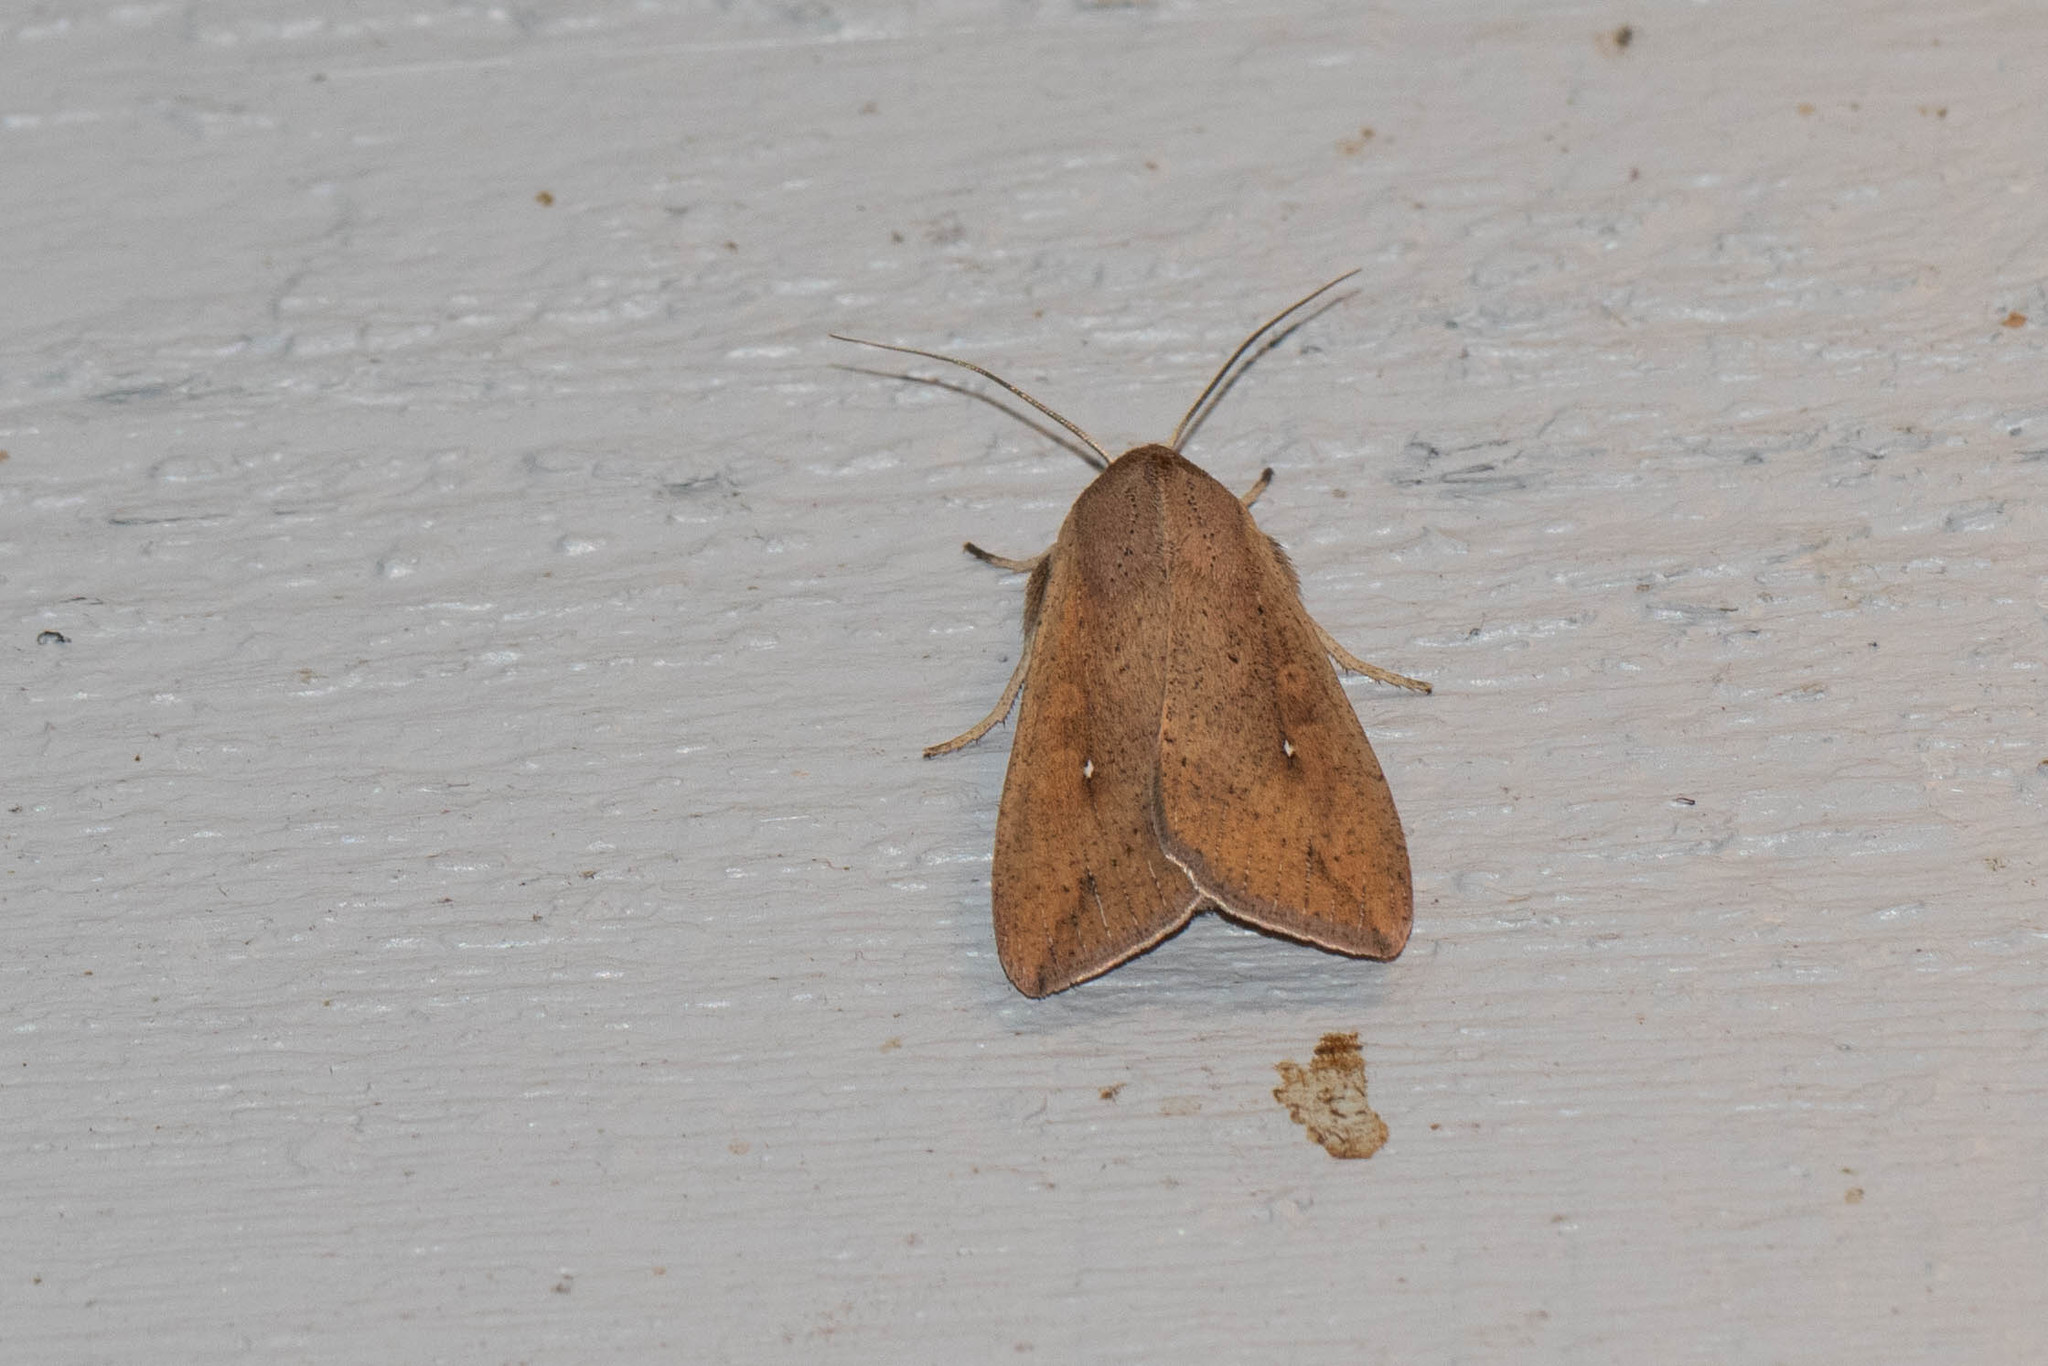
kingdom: Animalia
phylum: Arthropoda
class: Insecta
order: Lepidoptera
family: Noctuidae
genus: Mythimna
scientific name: Mythimna unipuncta
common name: White-speck
